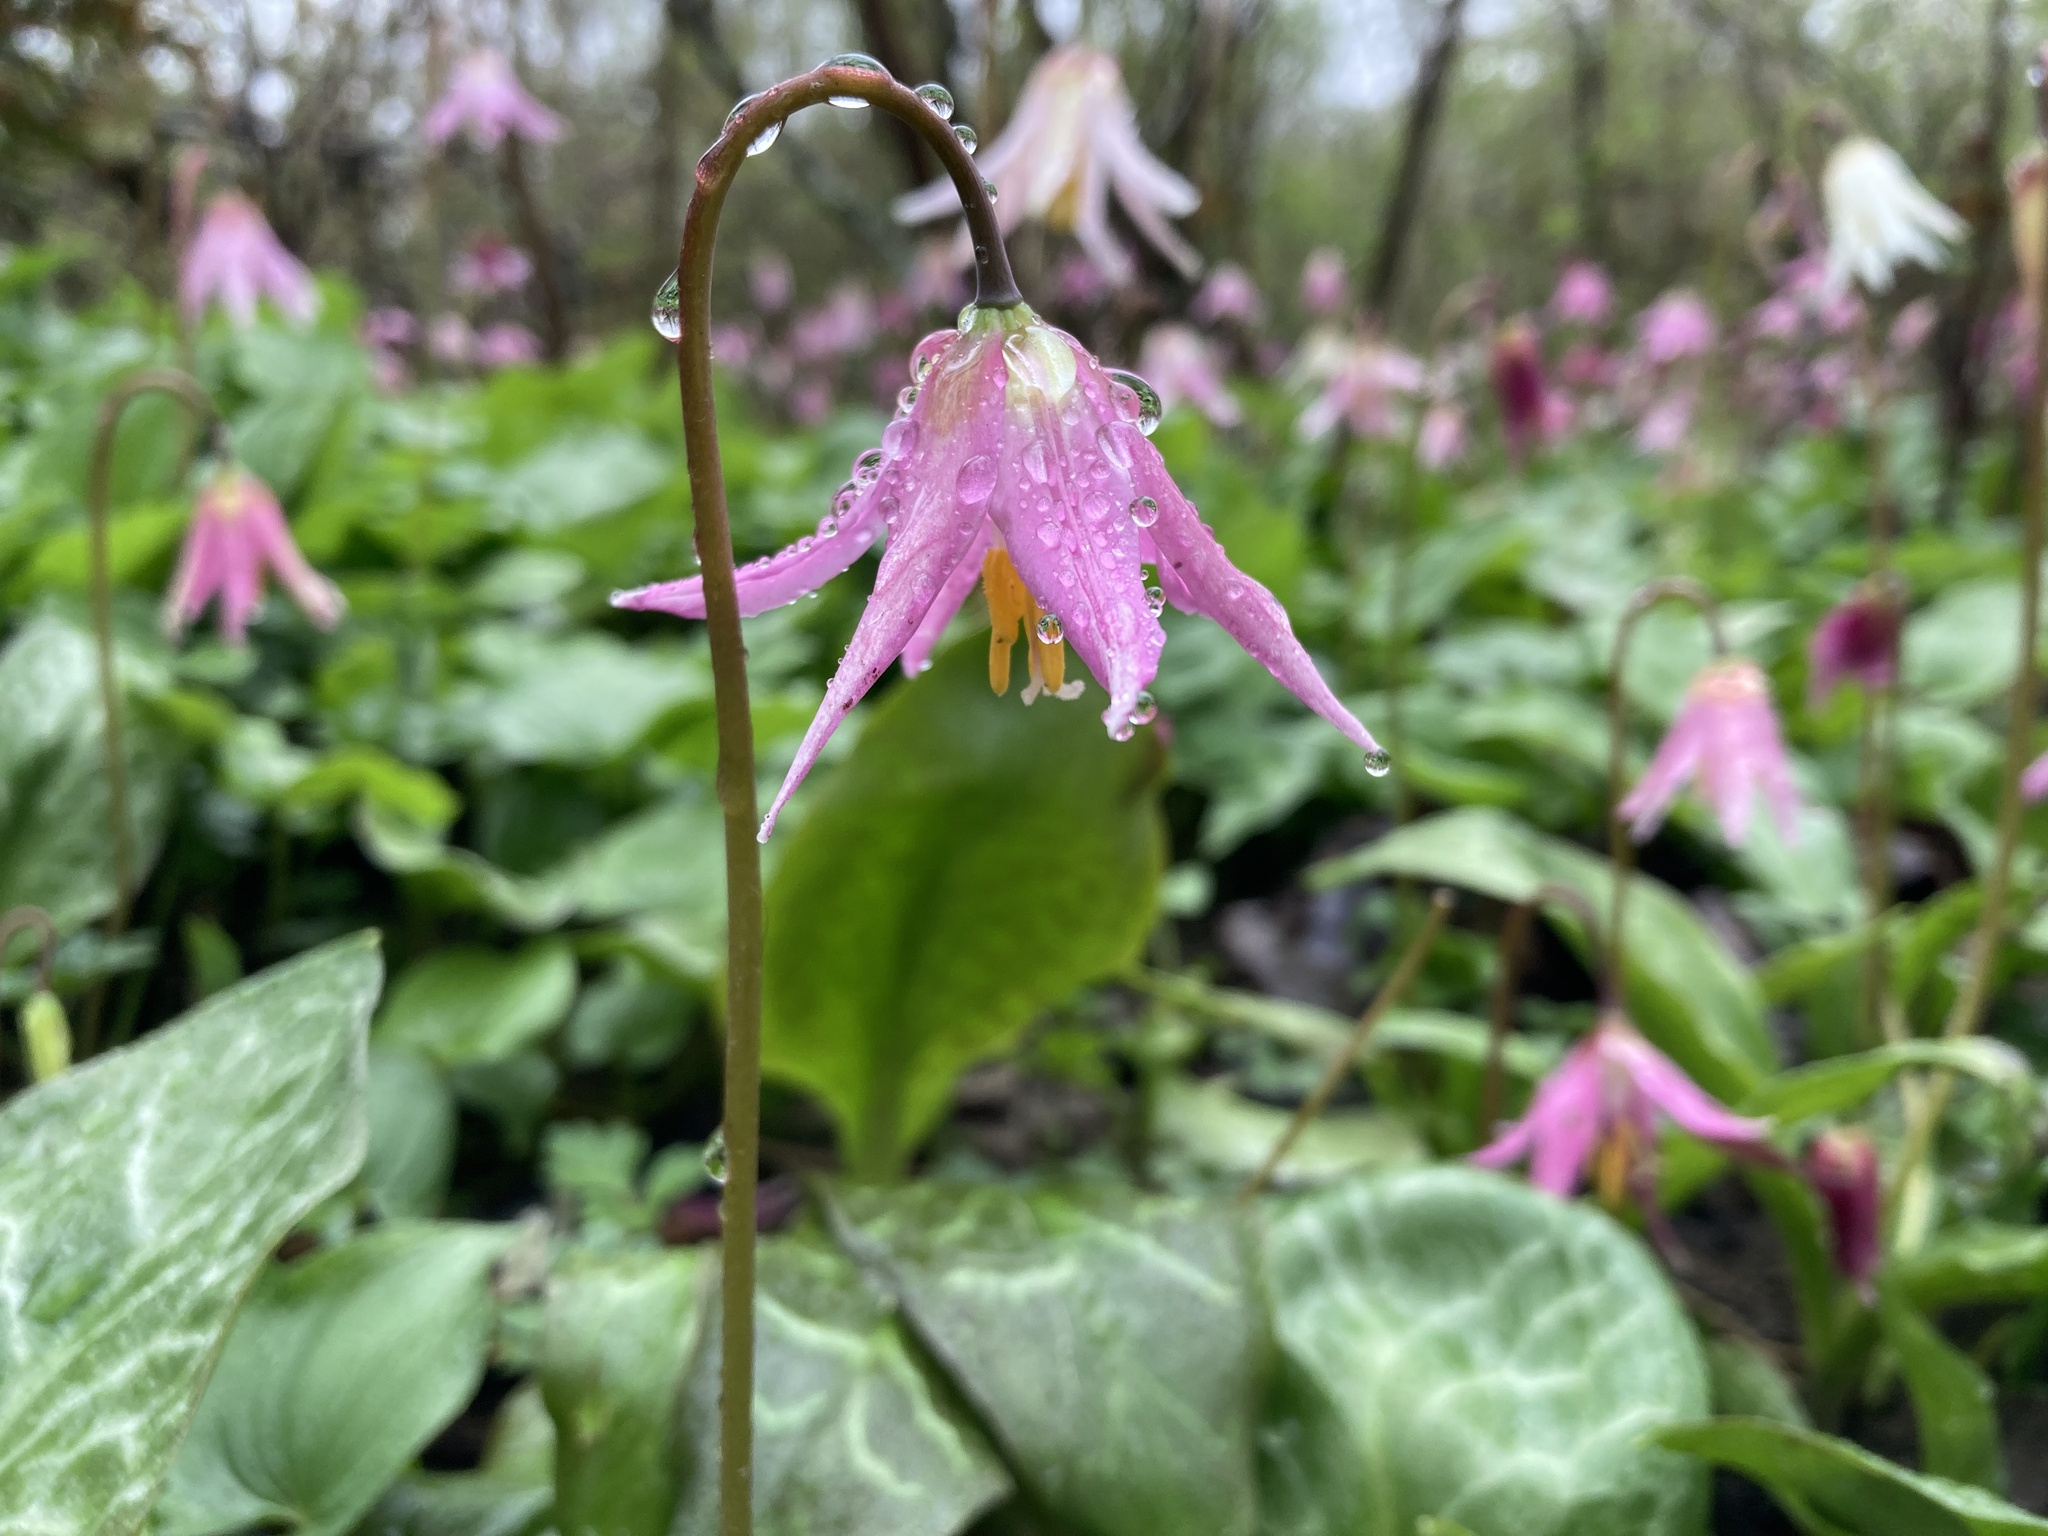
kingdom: Plantae
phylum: Tracheophyta
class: Liliopsida
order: Liliales
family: Liliaceae
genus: Erythronium
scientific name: Erythronium revolutum
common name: Pink fawn-lily
